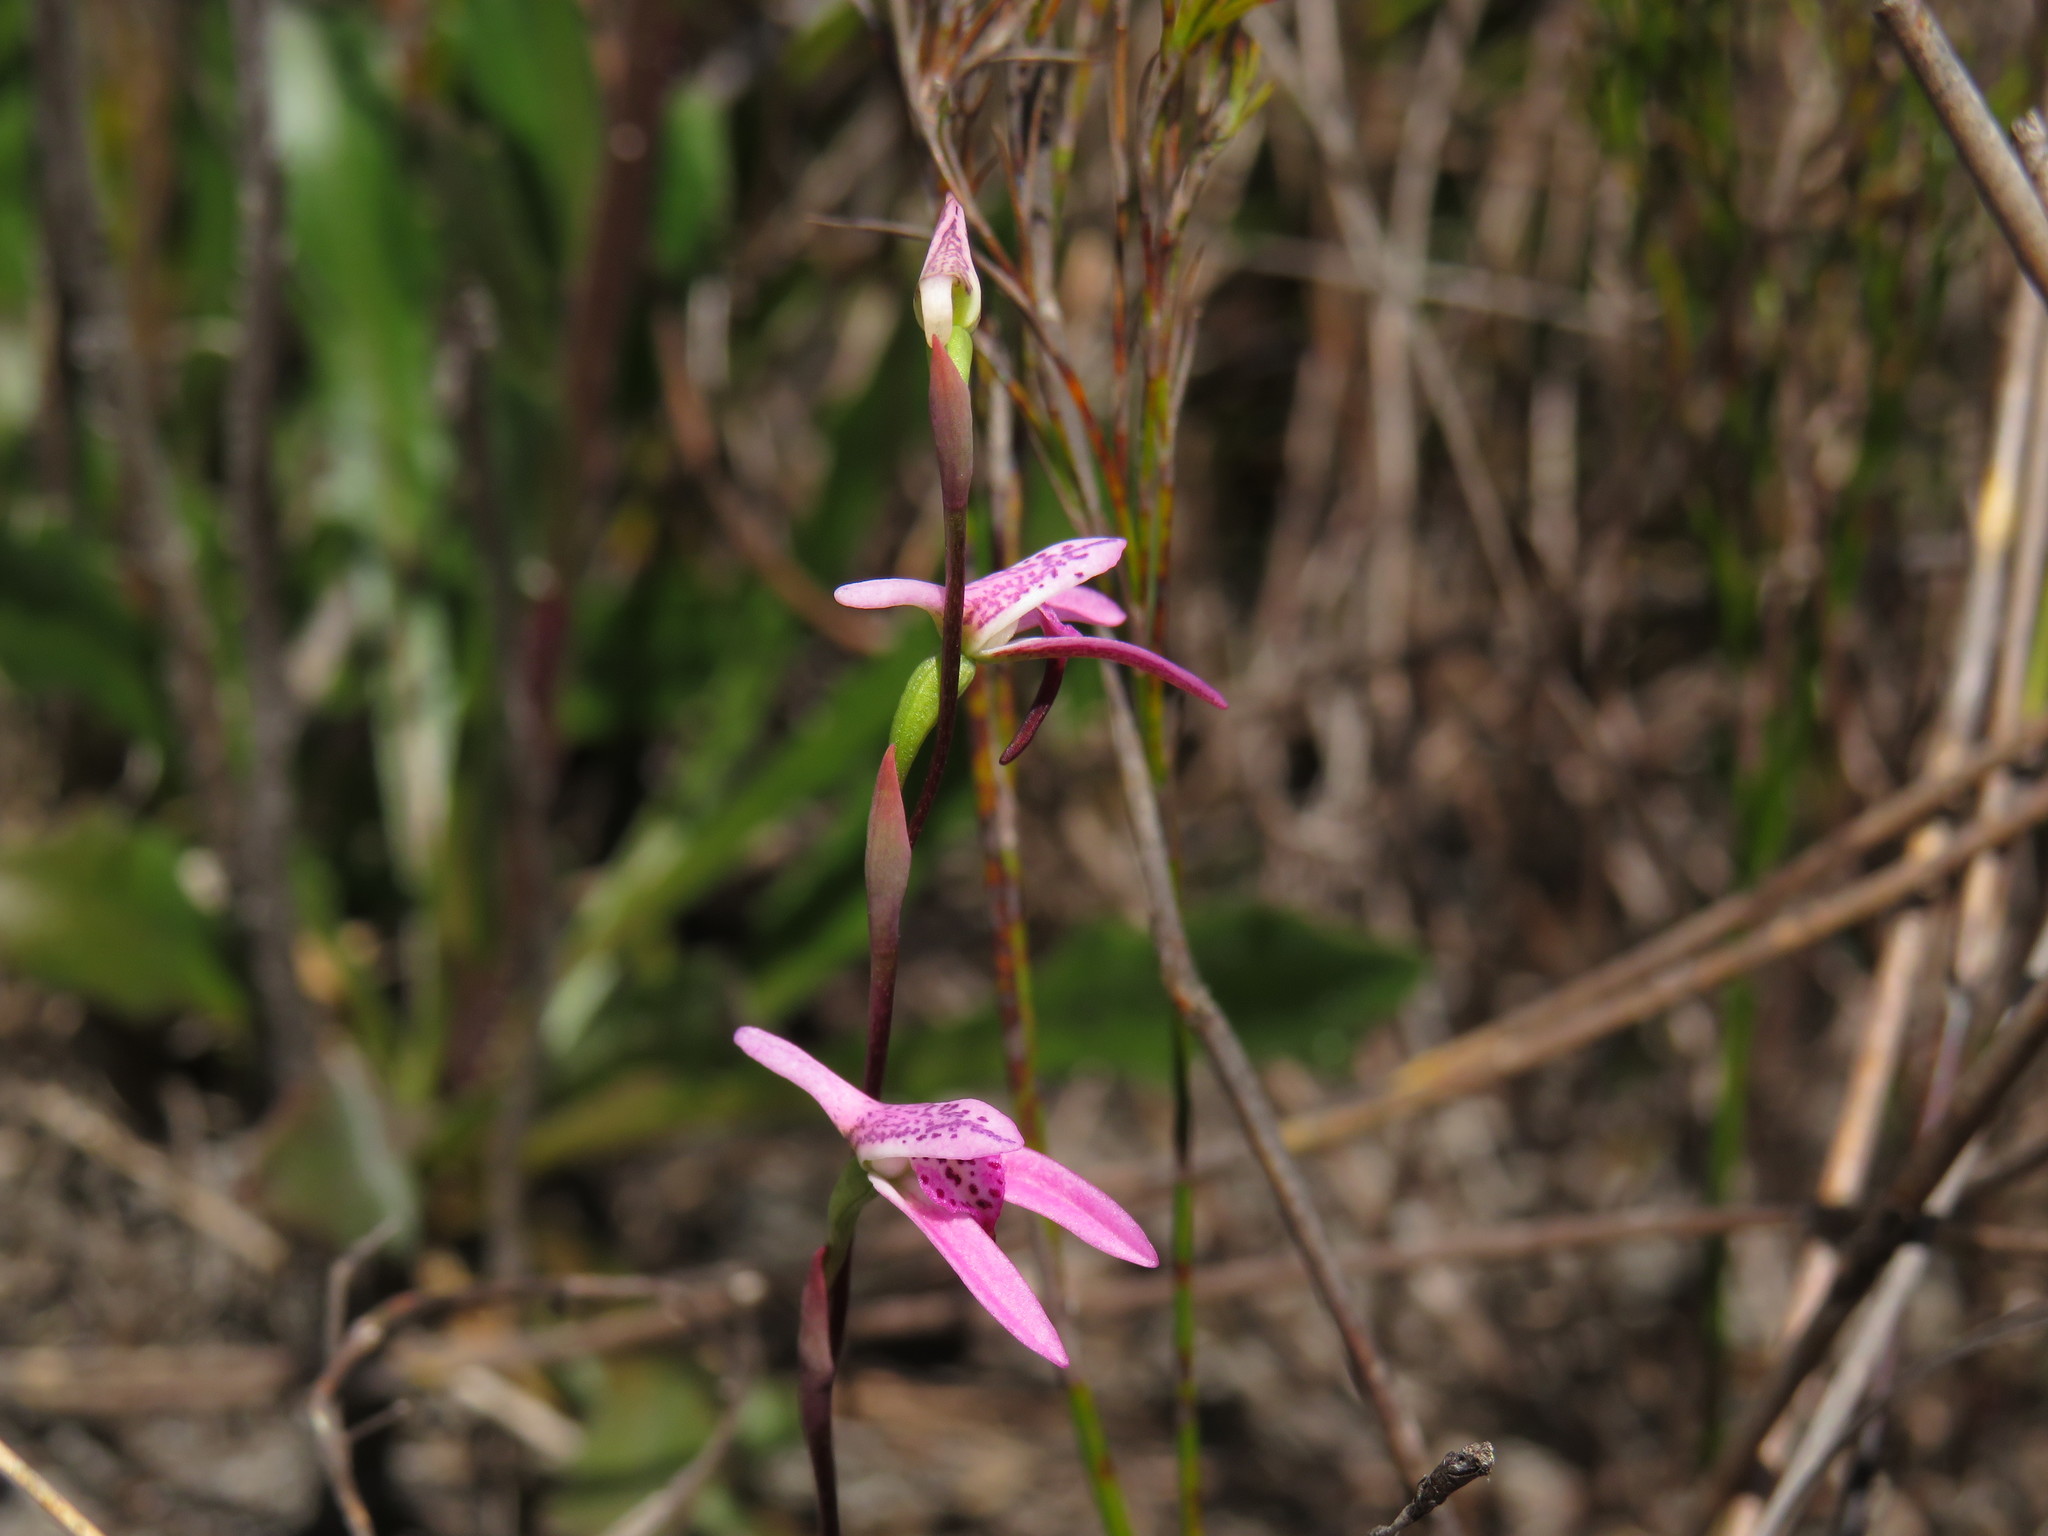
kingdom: Plantae
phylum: Tracheophyta
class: Liliopsida
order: Asparagales
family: Orchidaceae
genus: Disa
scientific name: Disa obliqua
